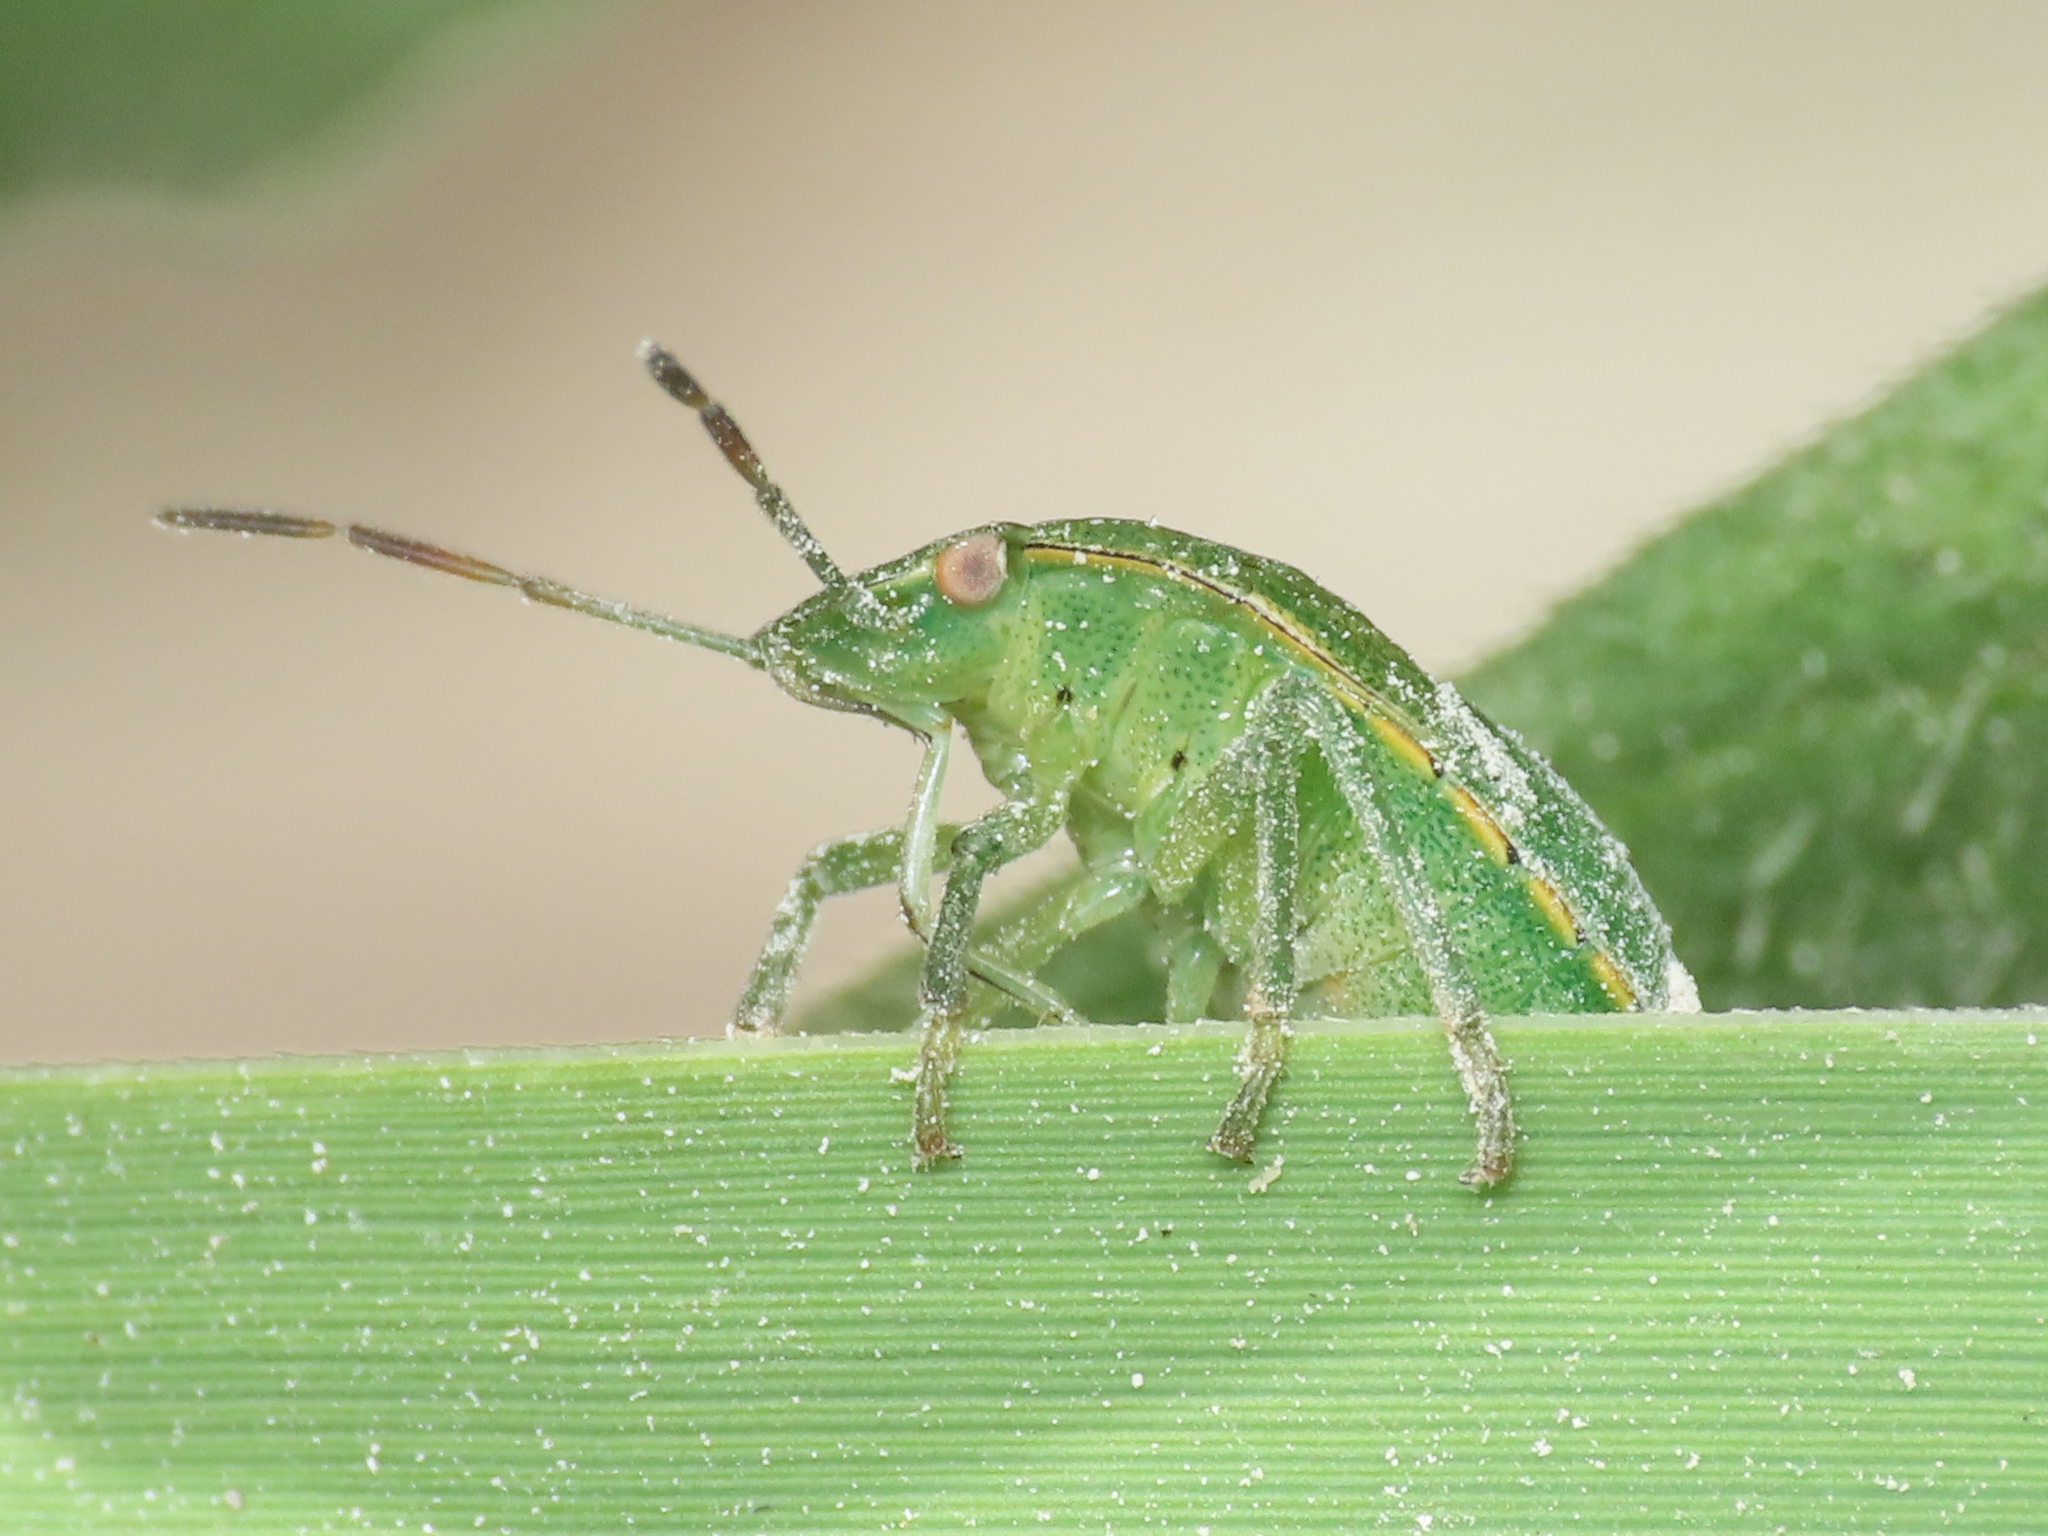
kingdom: Animalia
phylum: Arthropoda
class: Insecta
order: Hemiptera
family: Pentatomidae
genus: Acrosternum
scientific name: Acrosternum heegeri
